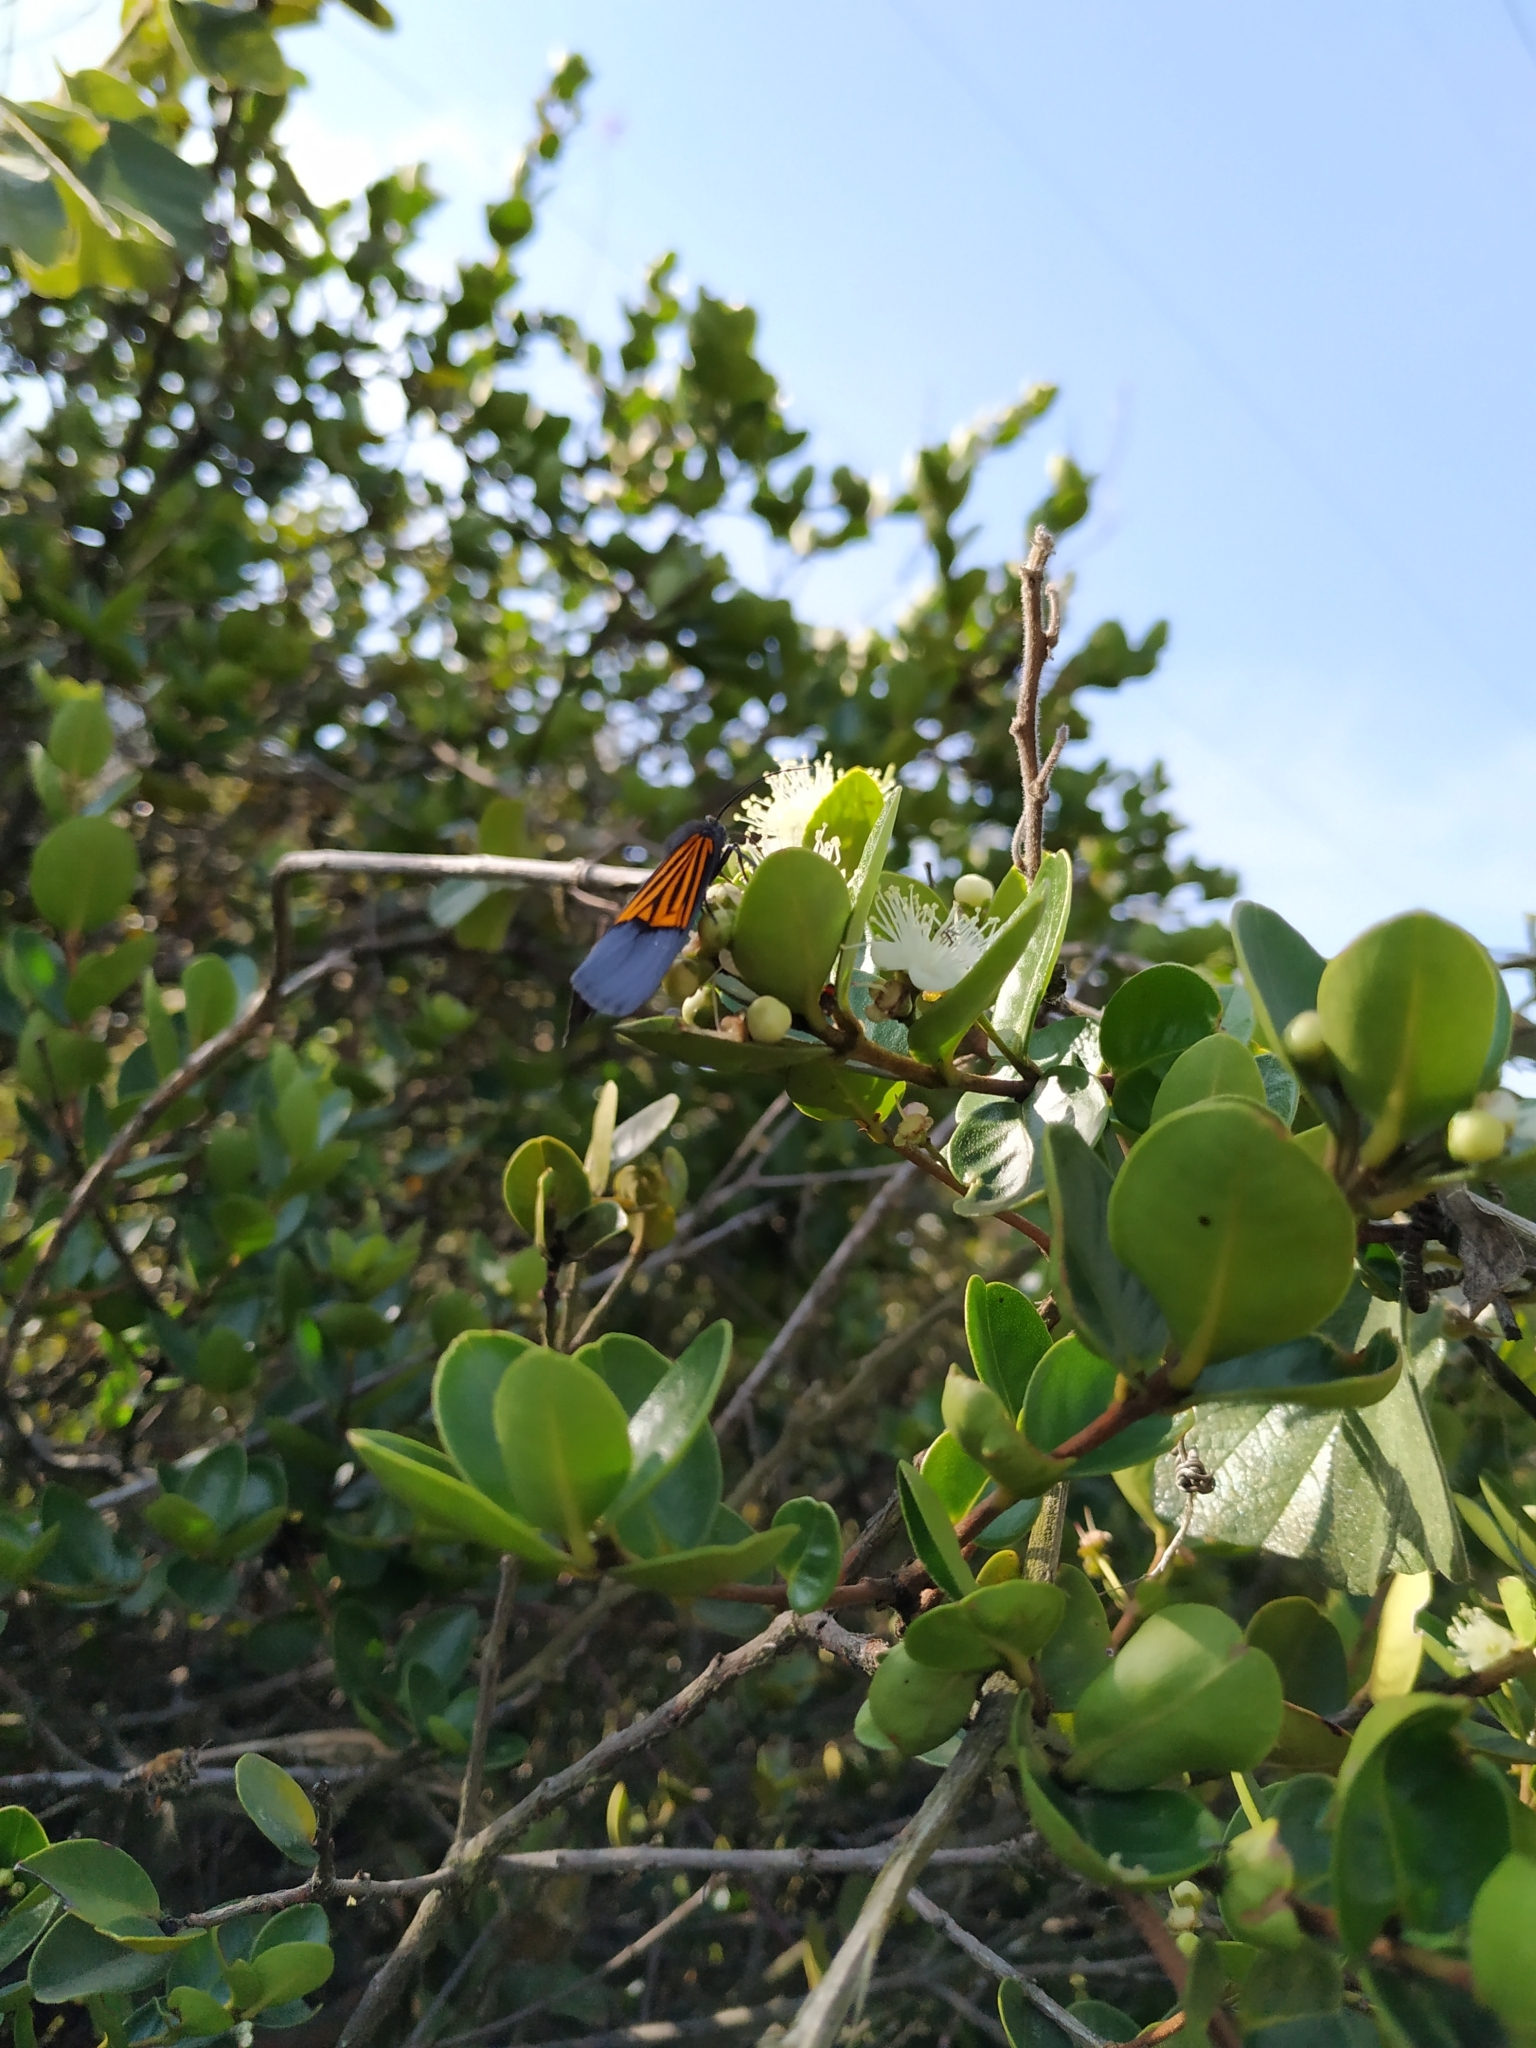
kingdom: Animalia
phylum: Arthropoda
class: Insecta
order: Lepidoptera
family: Notodontidae
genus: Scea
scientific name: Scea
